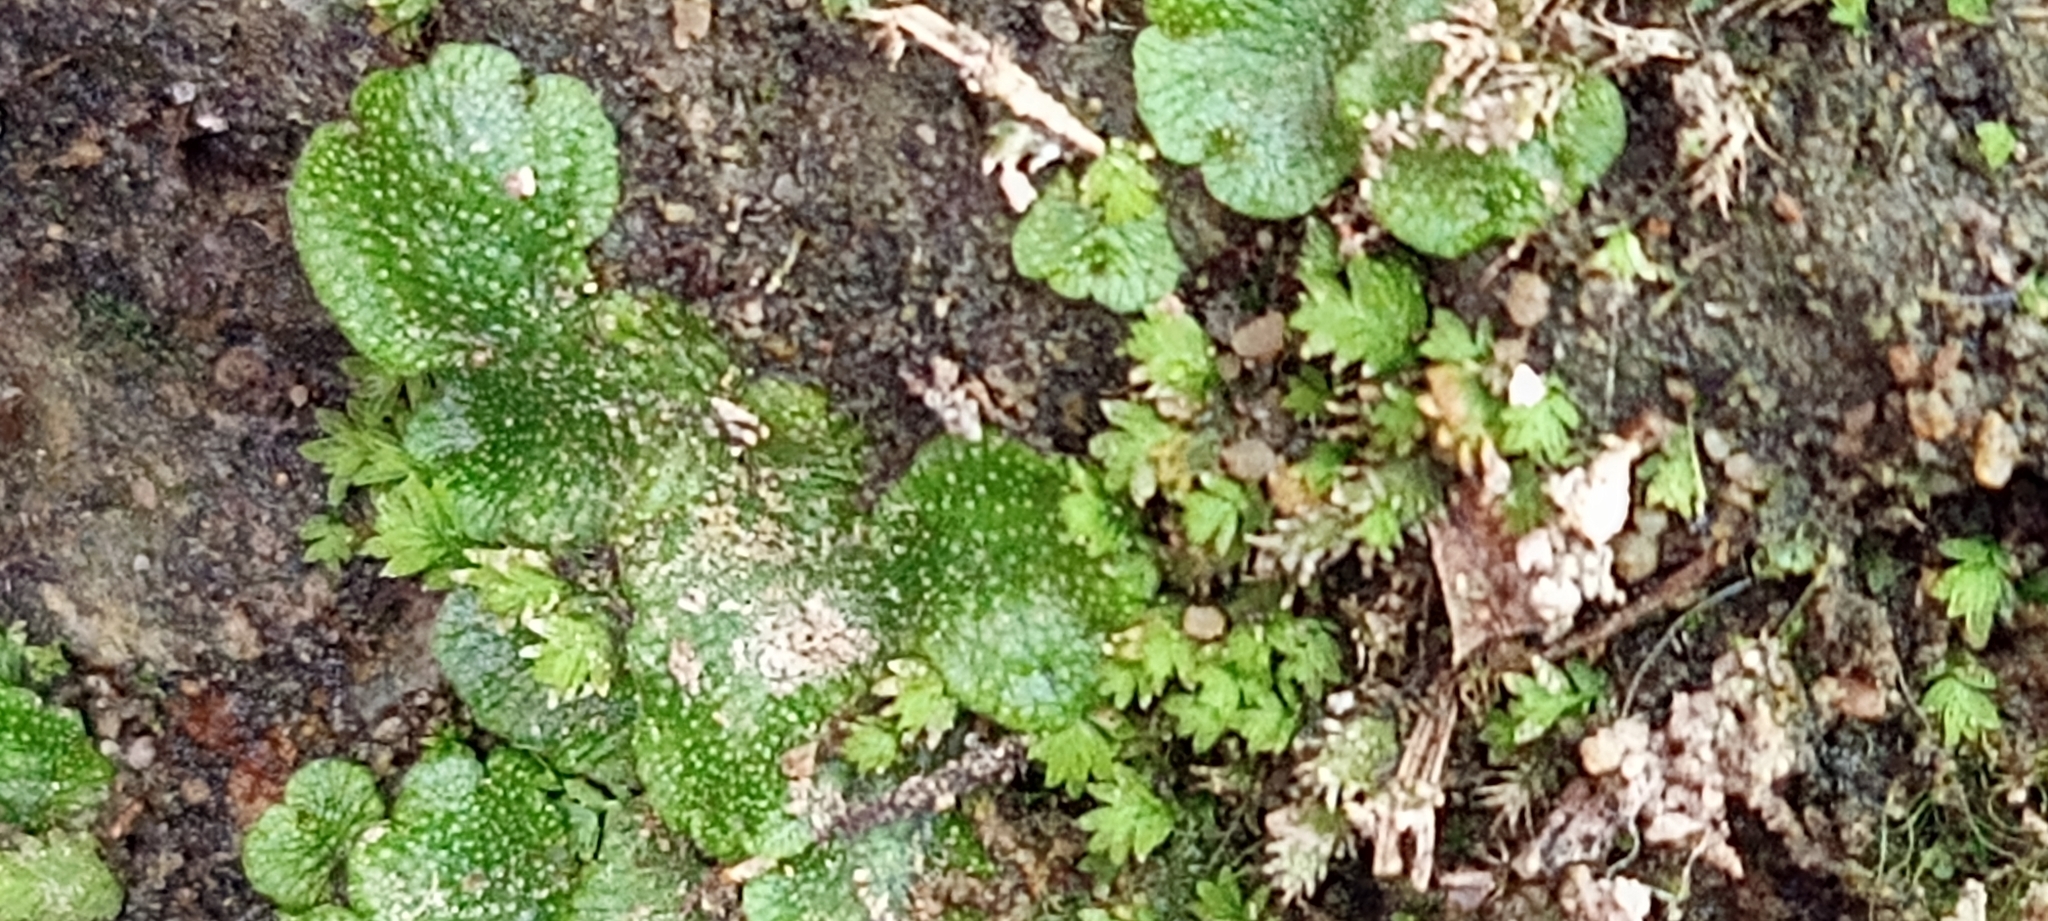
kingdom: Plantae
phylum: Marchantiophyta
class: Marchantiopsida
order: Marchantiales
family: Marchantiaceae
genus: Marchantia
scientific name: Marchantia polymorpha
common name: Common liverwort
